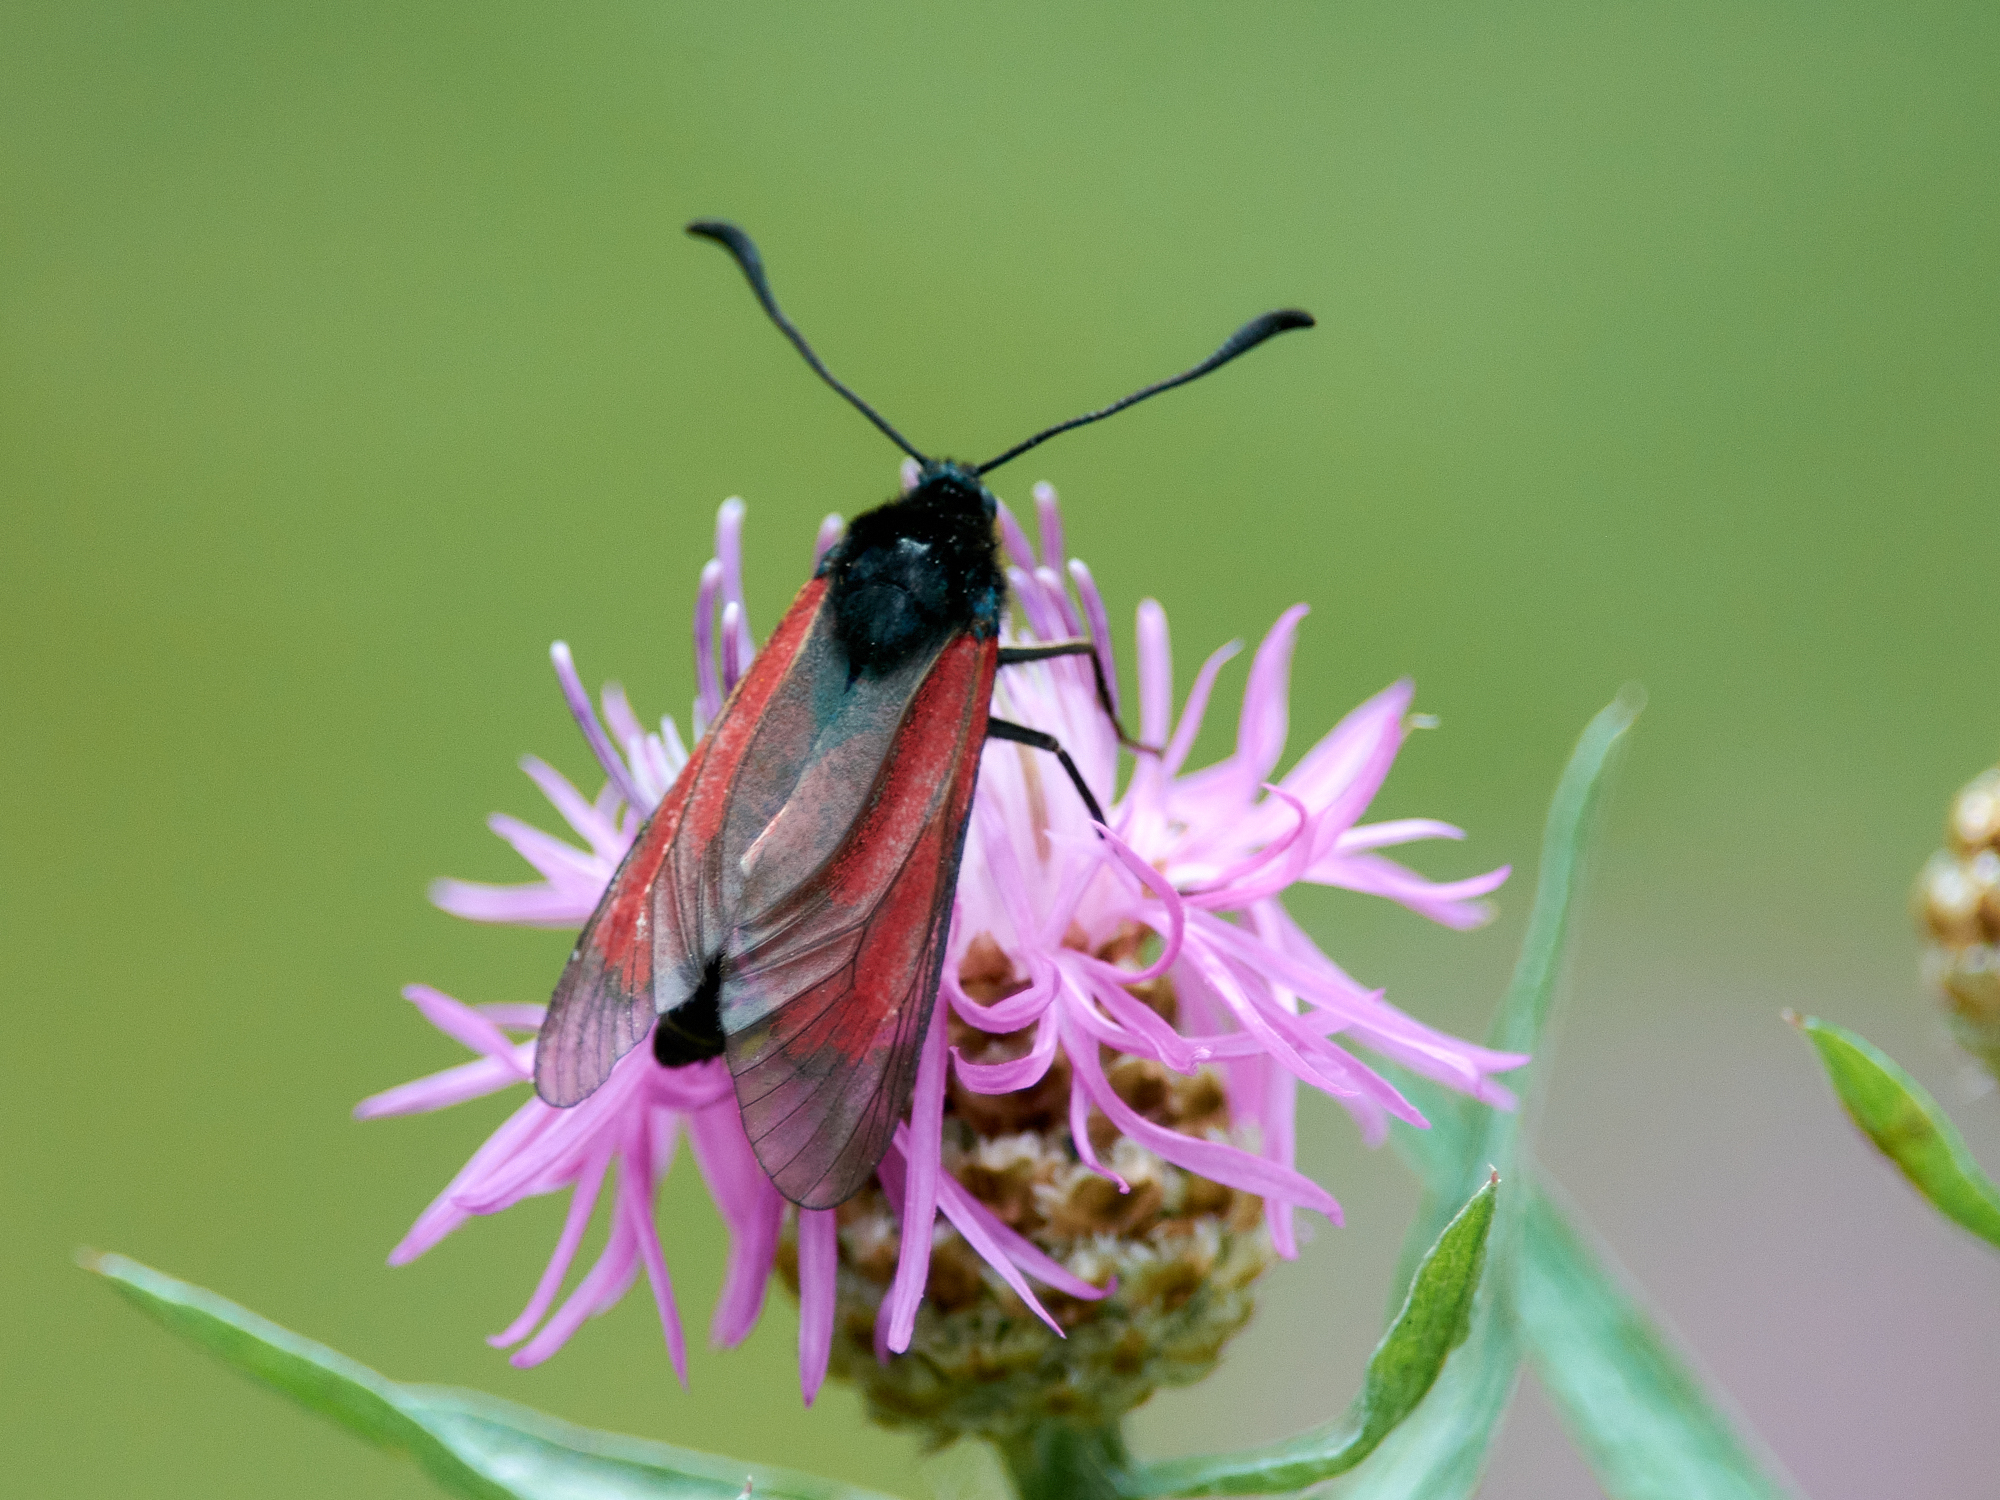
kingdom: Animalia
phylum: Arthropoda
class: Insecta
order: Lepidoptera
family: Zygaenidae
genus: Zygaena
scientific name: Zygaena minos
